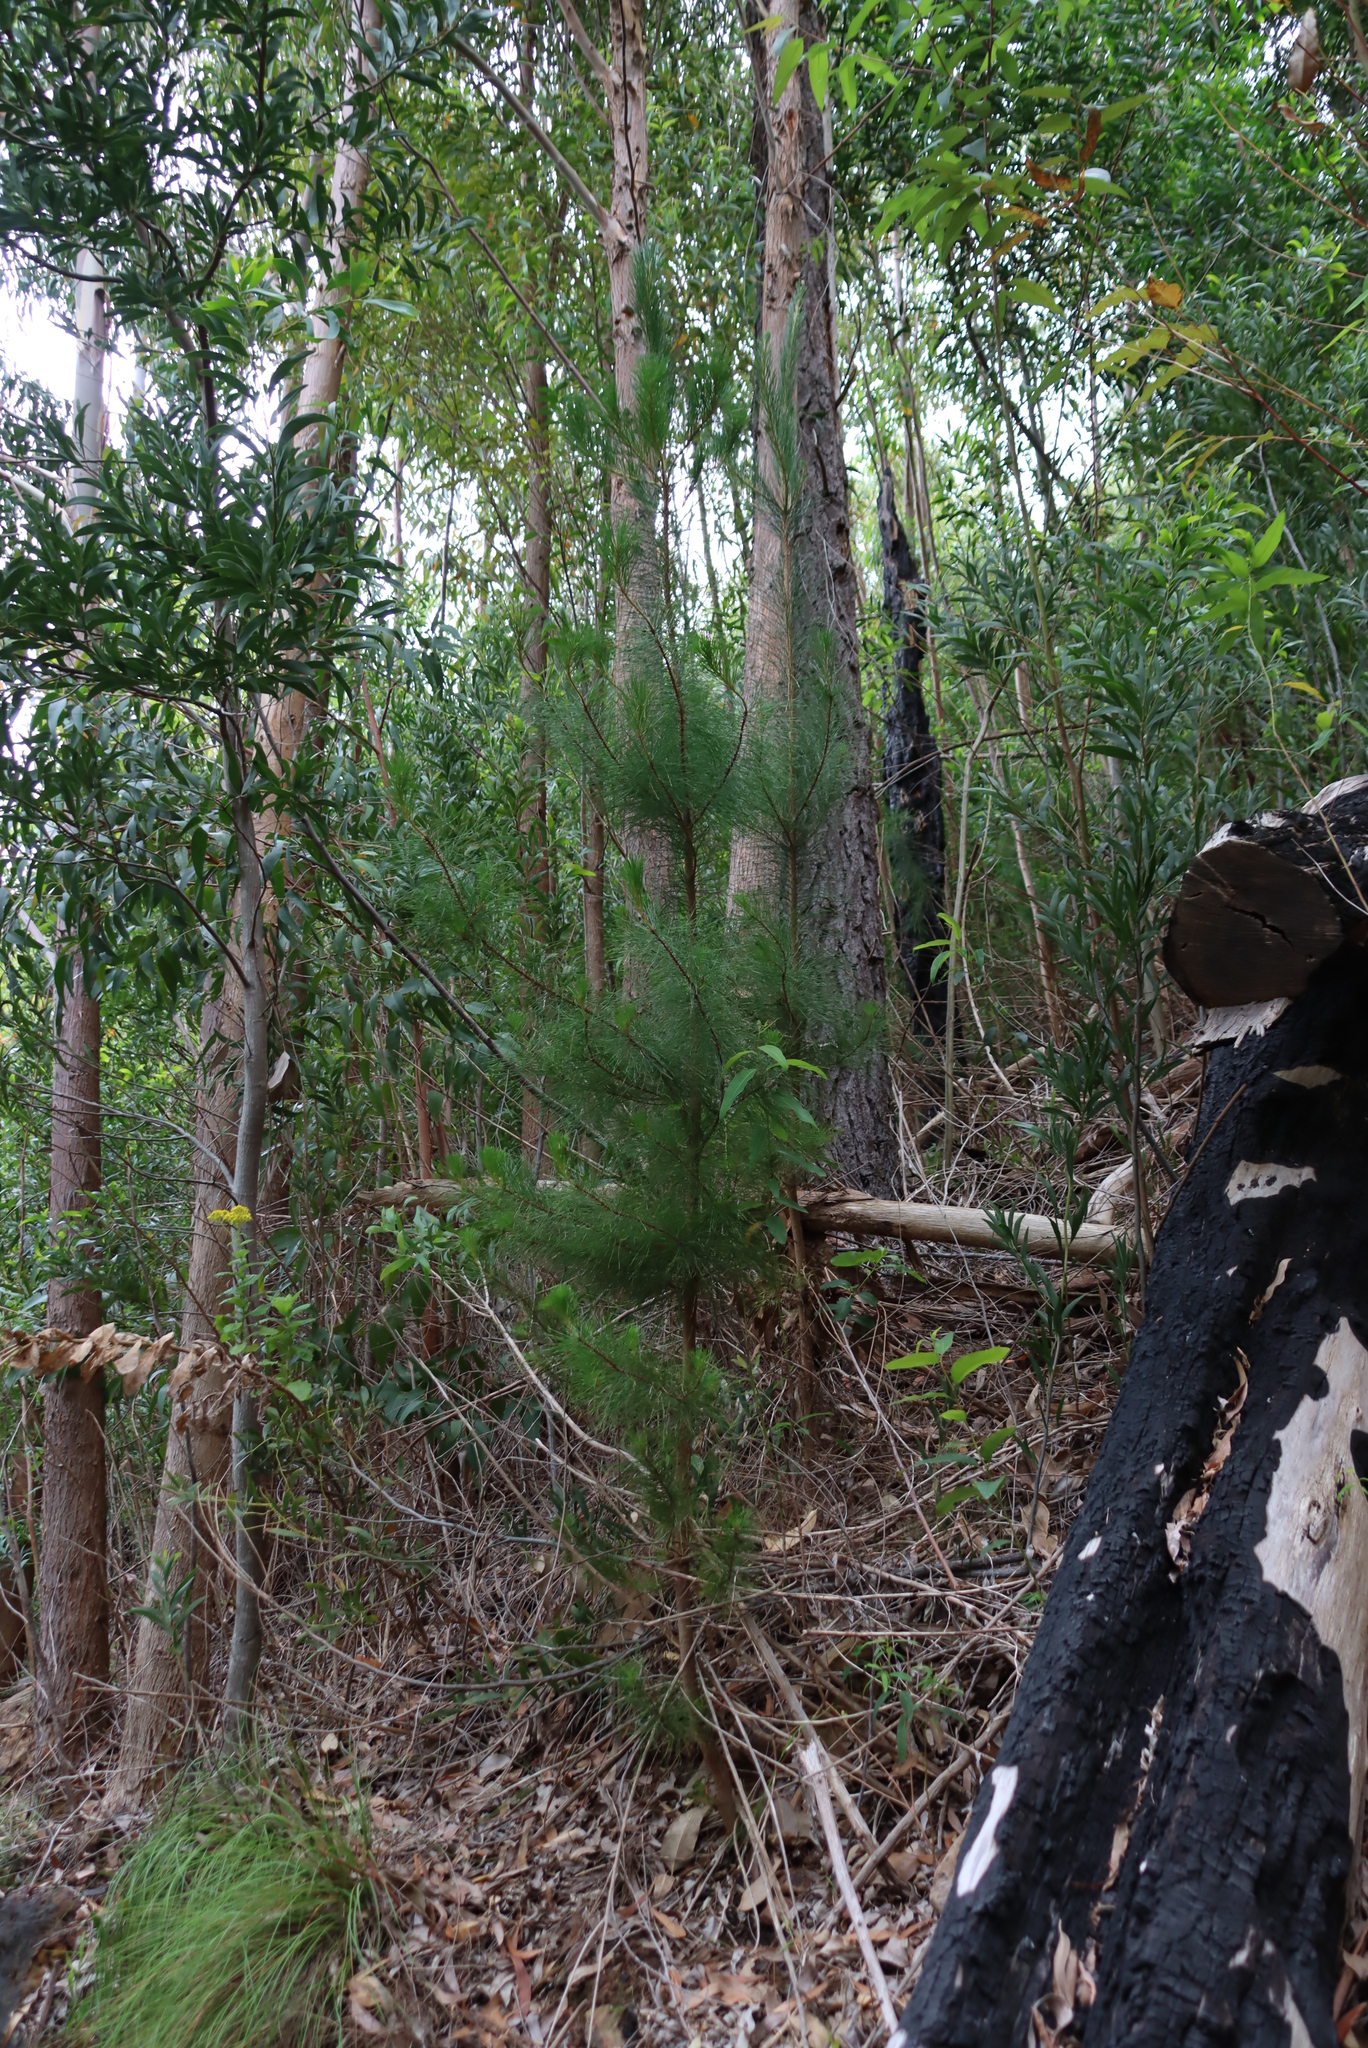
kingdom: Plantae
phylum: Tracheophyta
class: Pinopsida
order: Pinales
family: Pinaceae
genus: Pinus
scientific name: Pinus radiata
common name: Monterey pine
